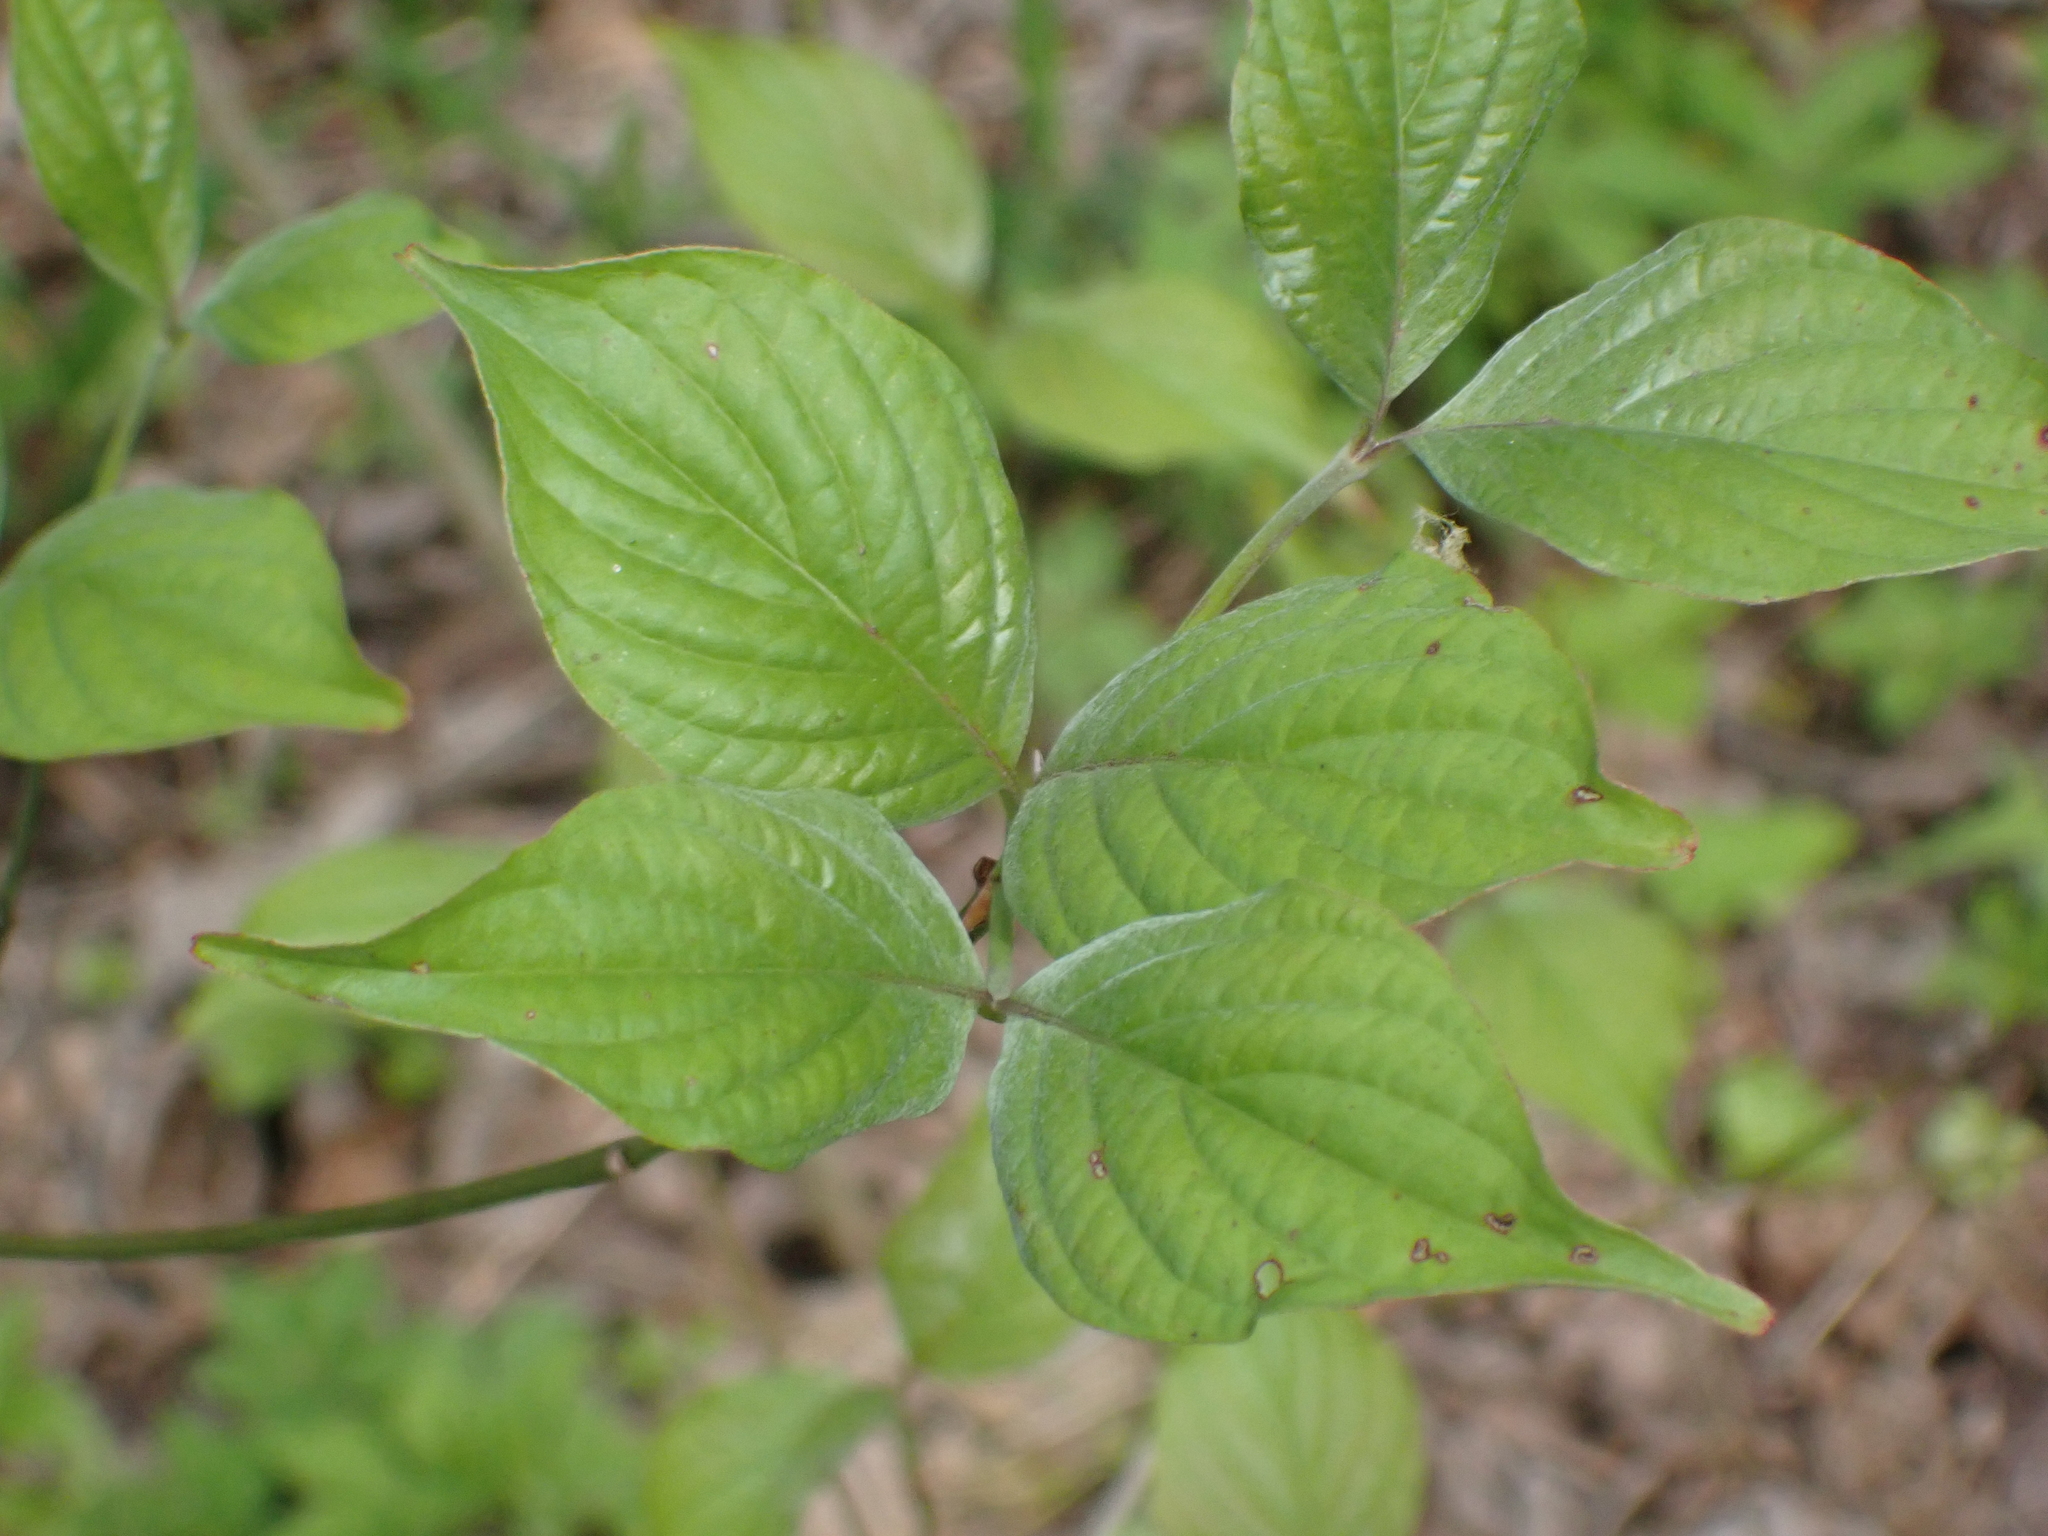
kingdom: Plantae
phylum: Tracheophyta
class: Magnoliopsida
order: Cornales
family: Cornaceae
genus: Cornus
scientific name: Cornus florida
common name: Flowering dogwood
